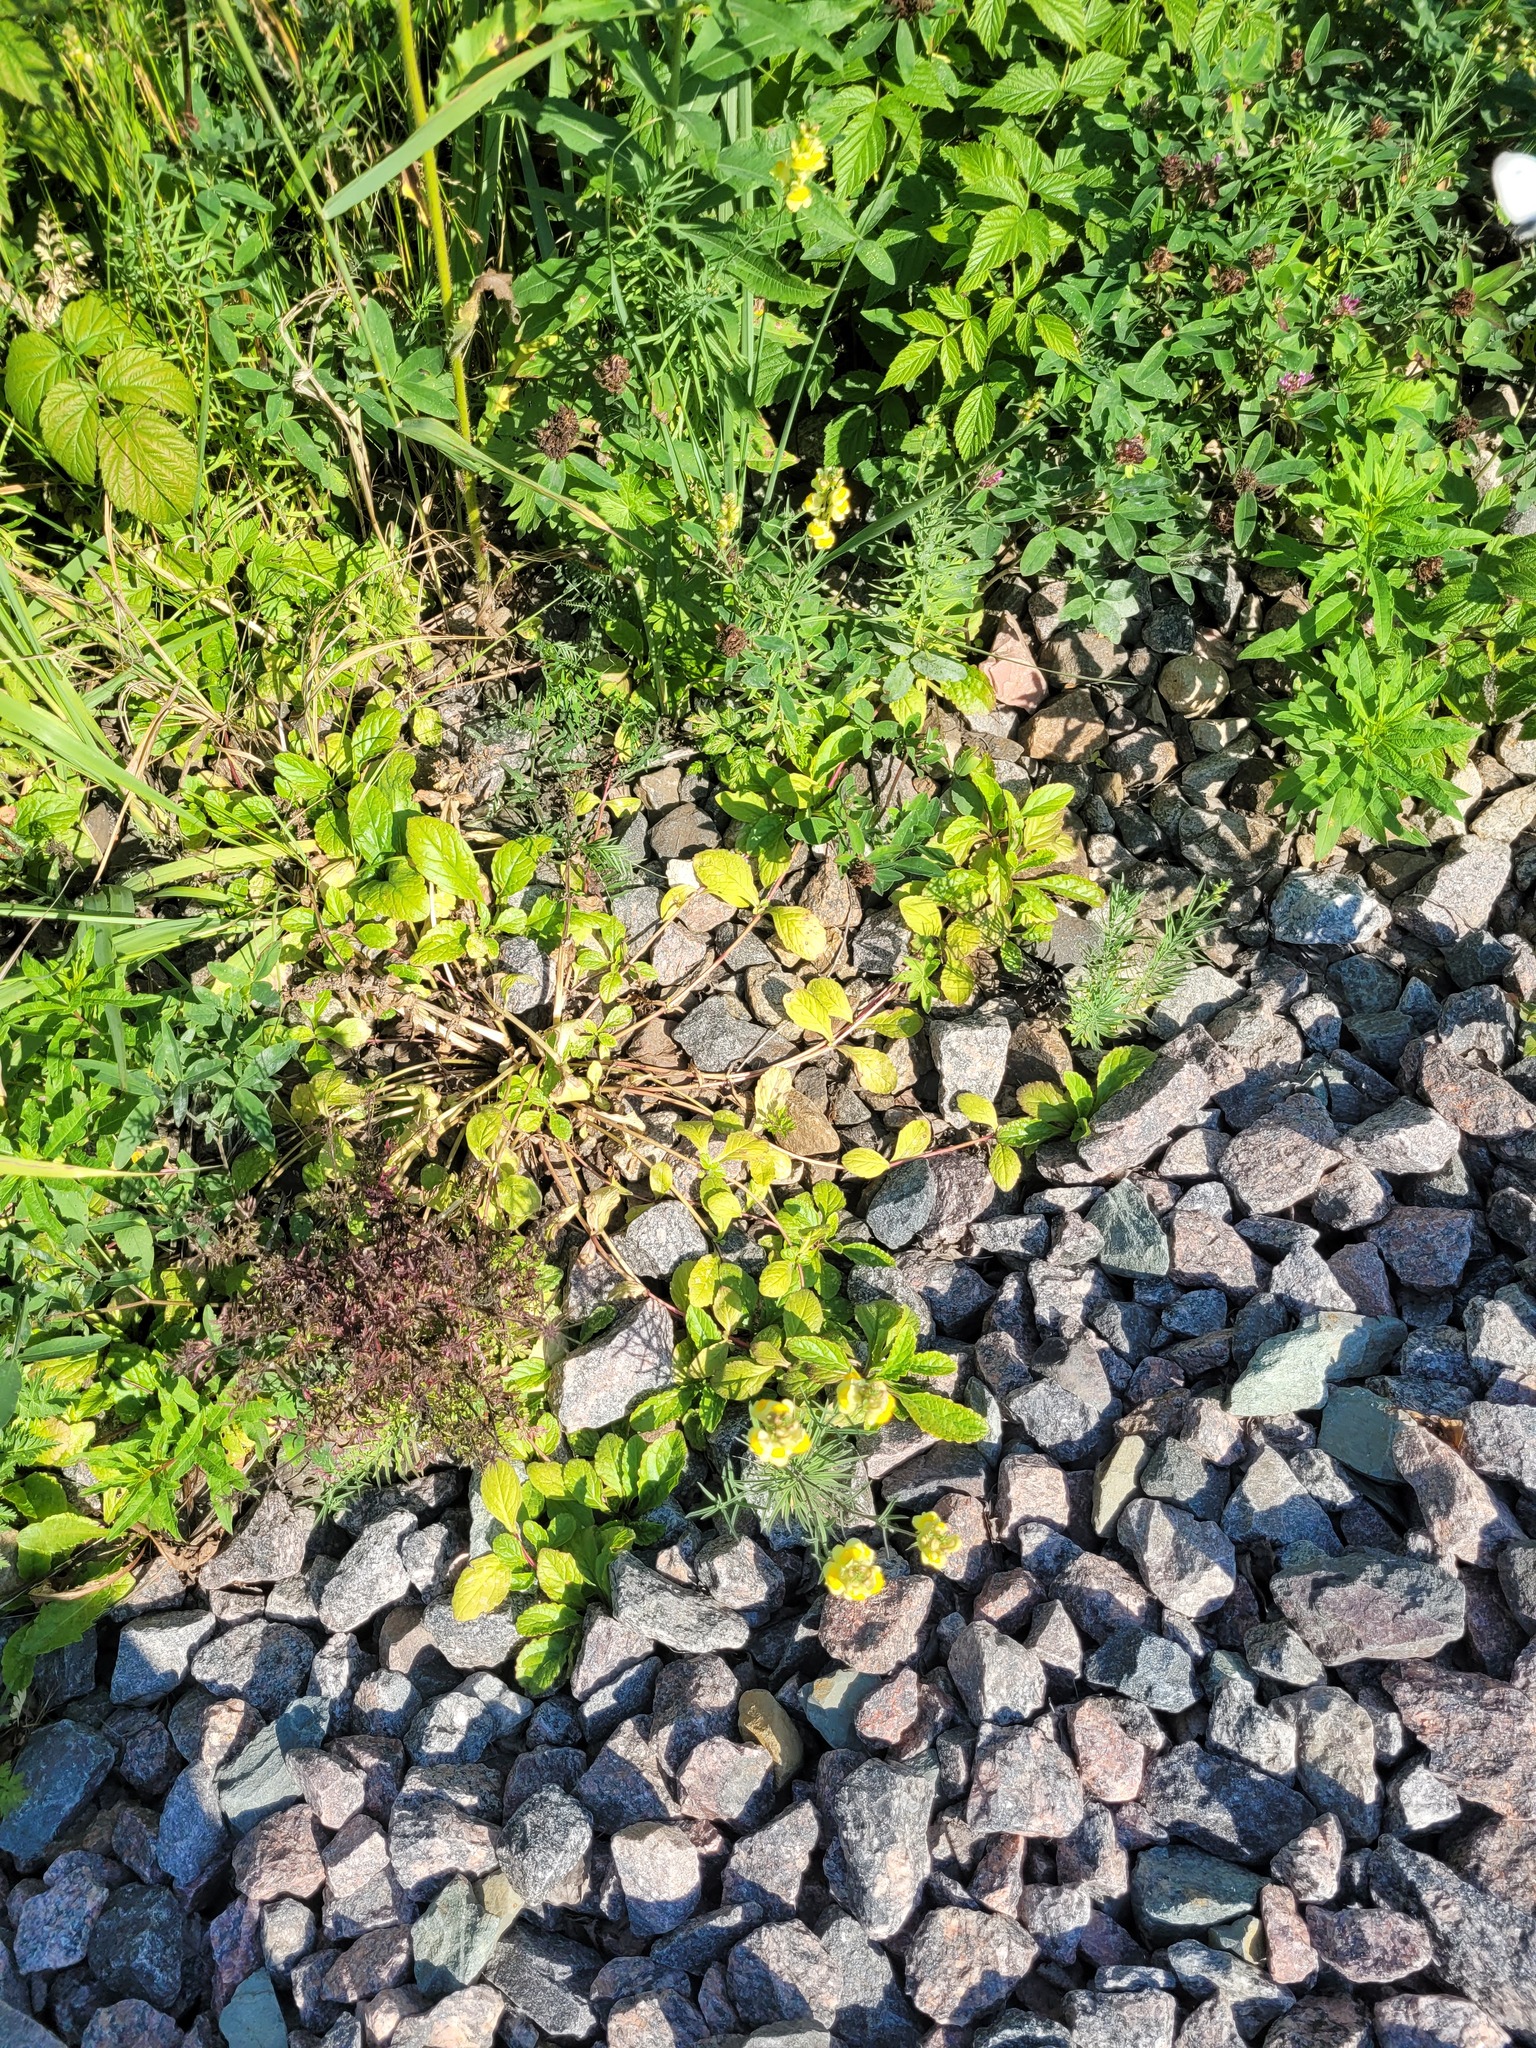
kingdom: Plantae
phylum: Tracheophyta
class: Magnoliopsida
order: Lamiales
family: Lamiaceae
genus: Ajuga
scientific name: Ajuga reptans
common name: Bugle
